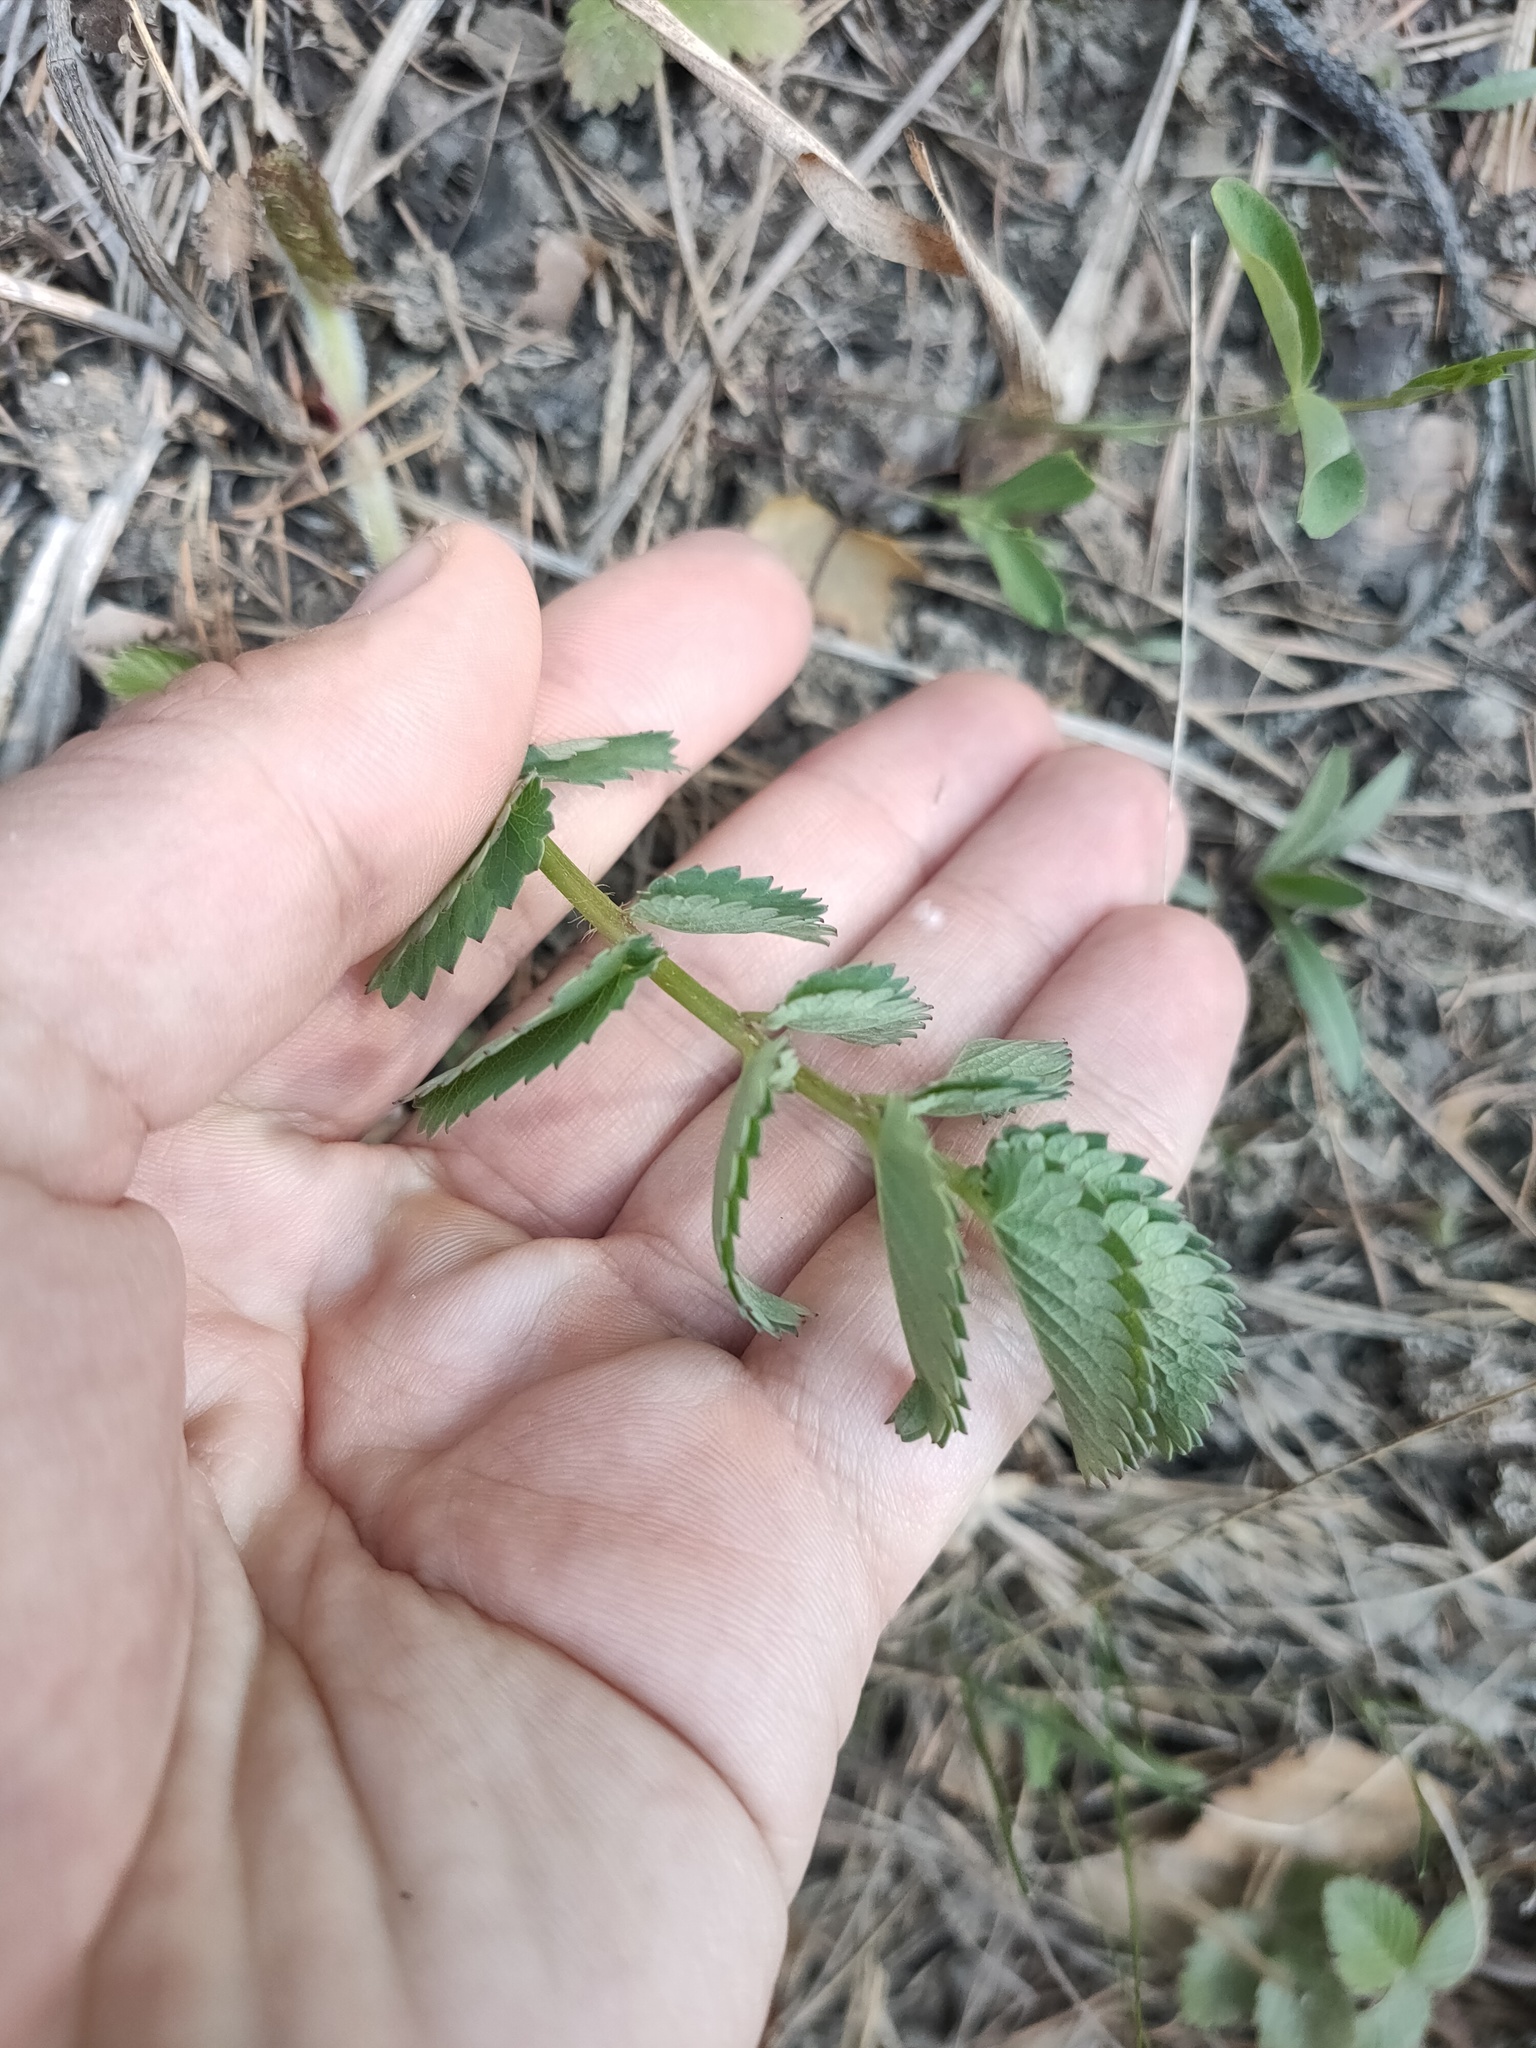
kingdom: Plantae
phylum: Tracheophyta
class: Magnoliopsida
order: Rosales
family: Rosaceae
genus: Sanguisorba
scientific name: Sanguisorba officinalis
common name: Great burnet
